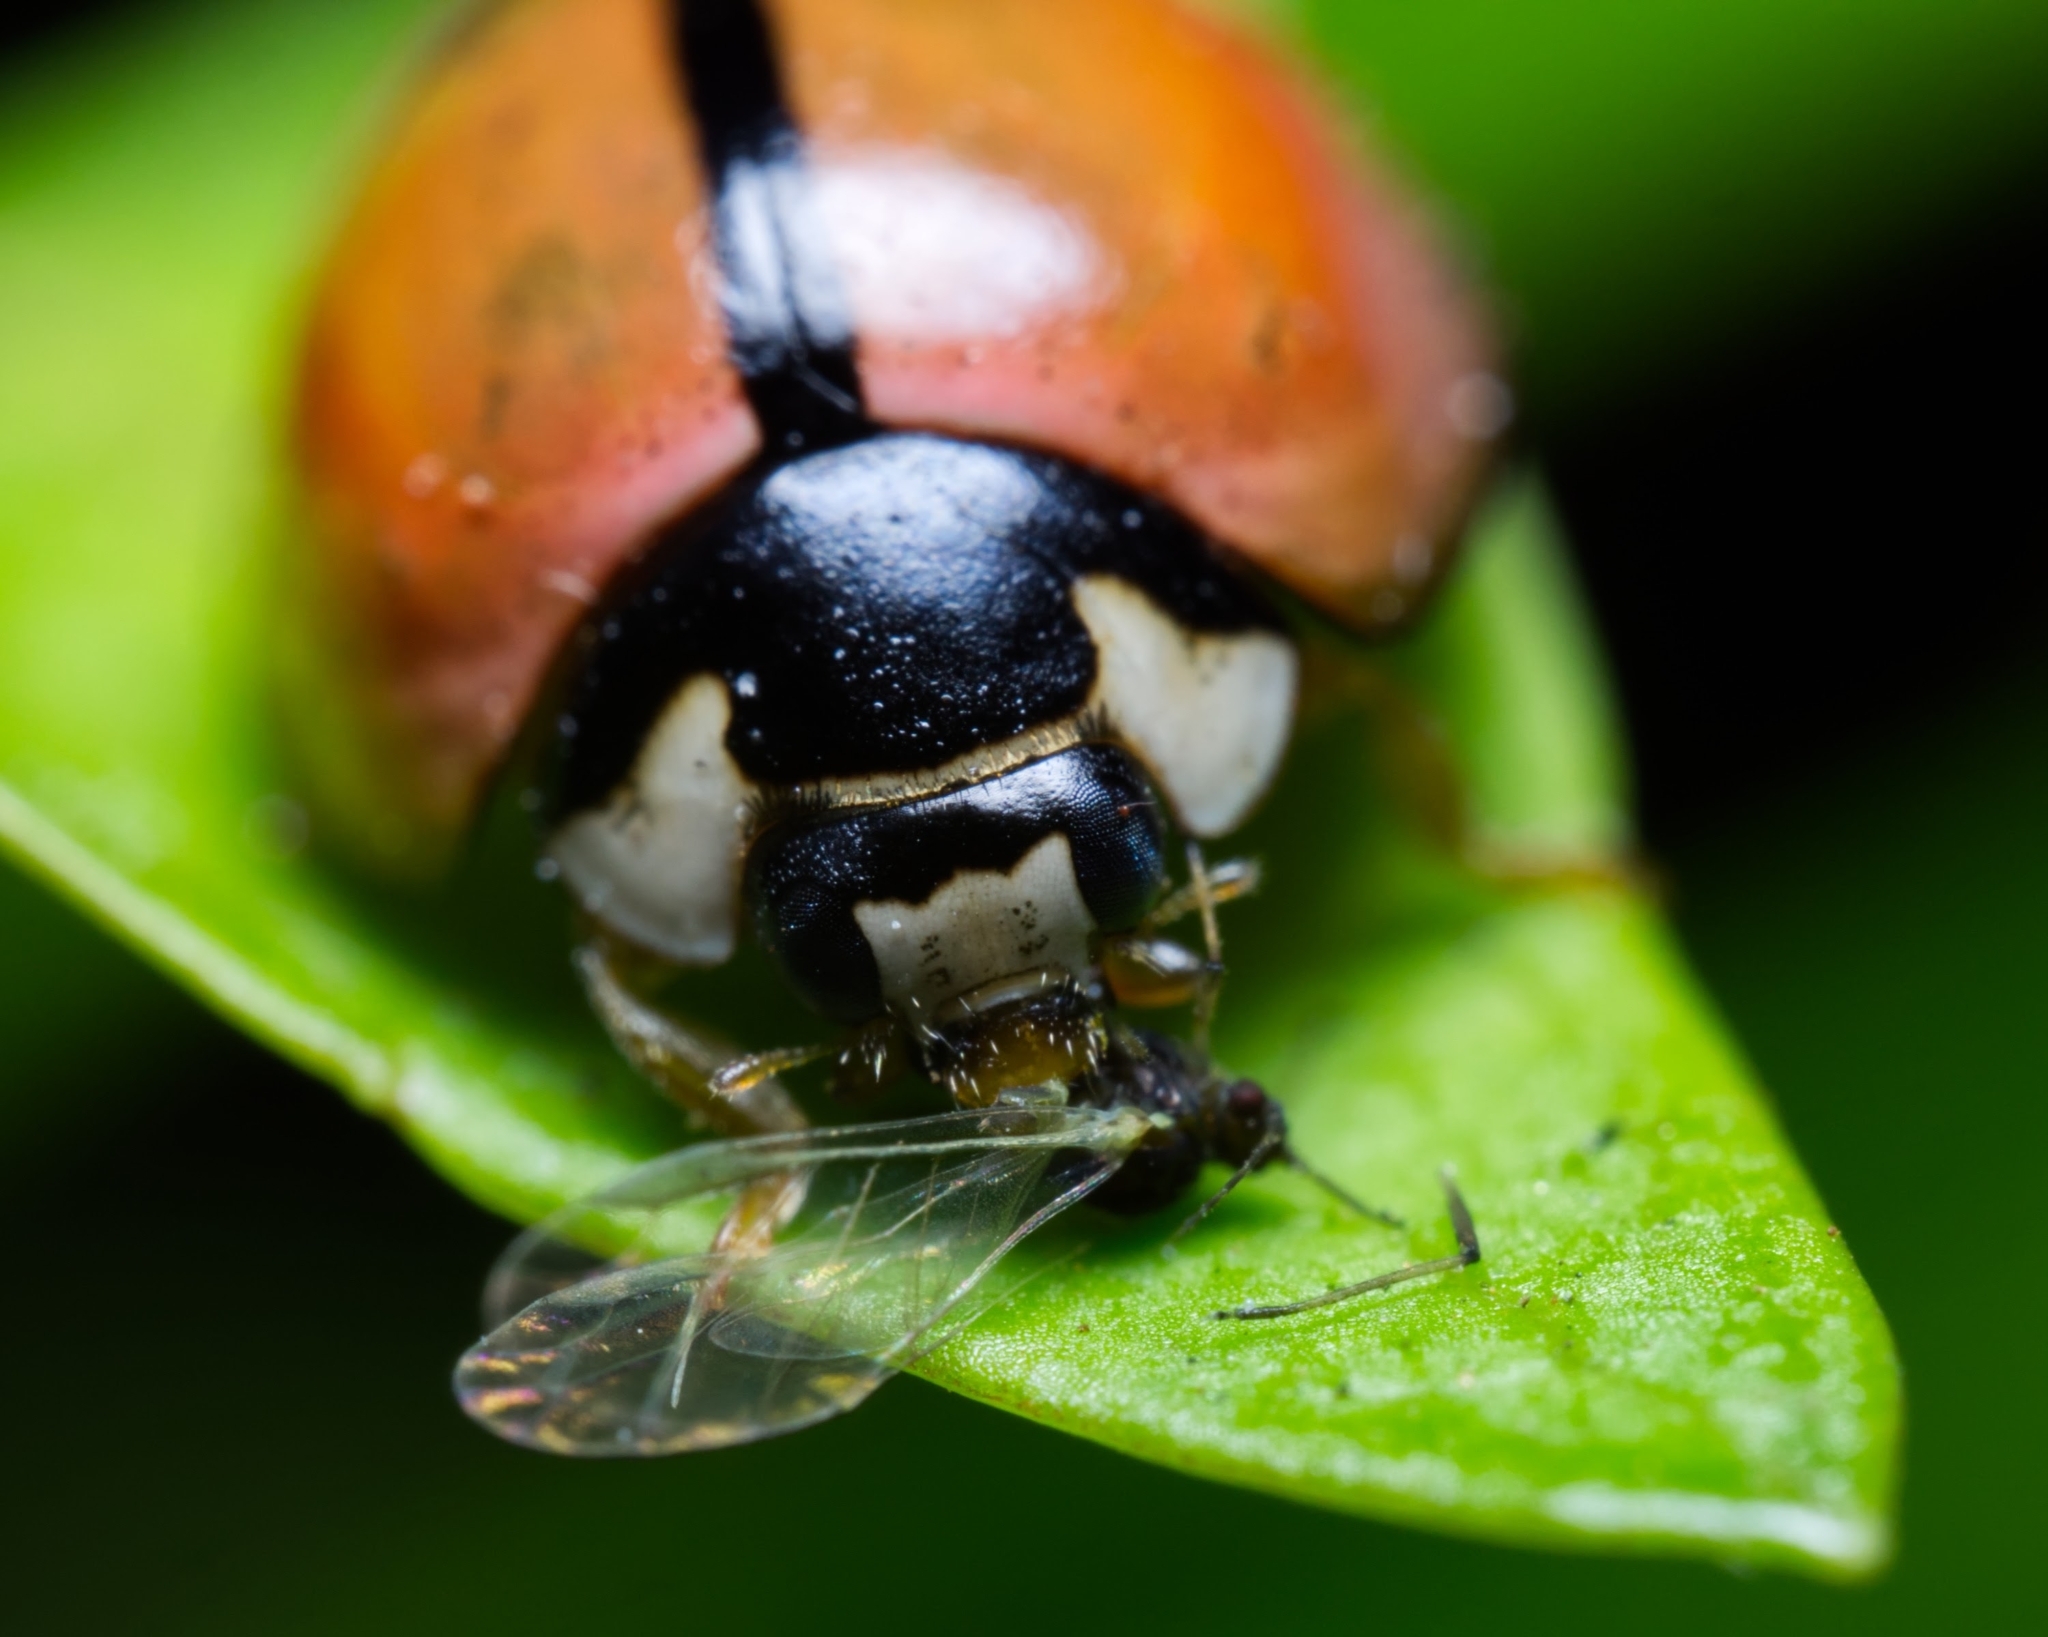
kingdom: Animalia
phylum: Arthropoda
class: Insecta
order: Coleoptera
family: Coccinellidae
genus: Cheilomenes
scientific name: Cheilomenes propinqua
